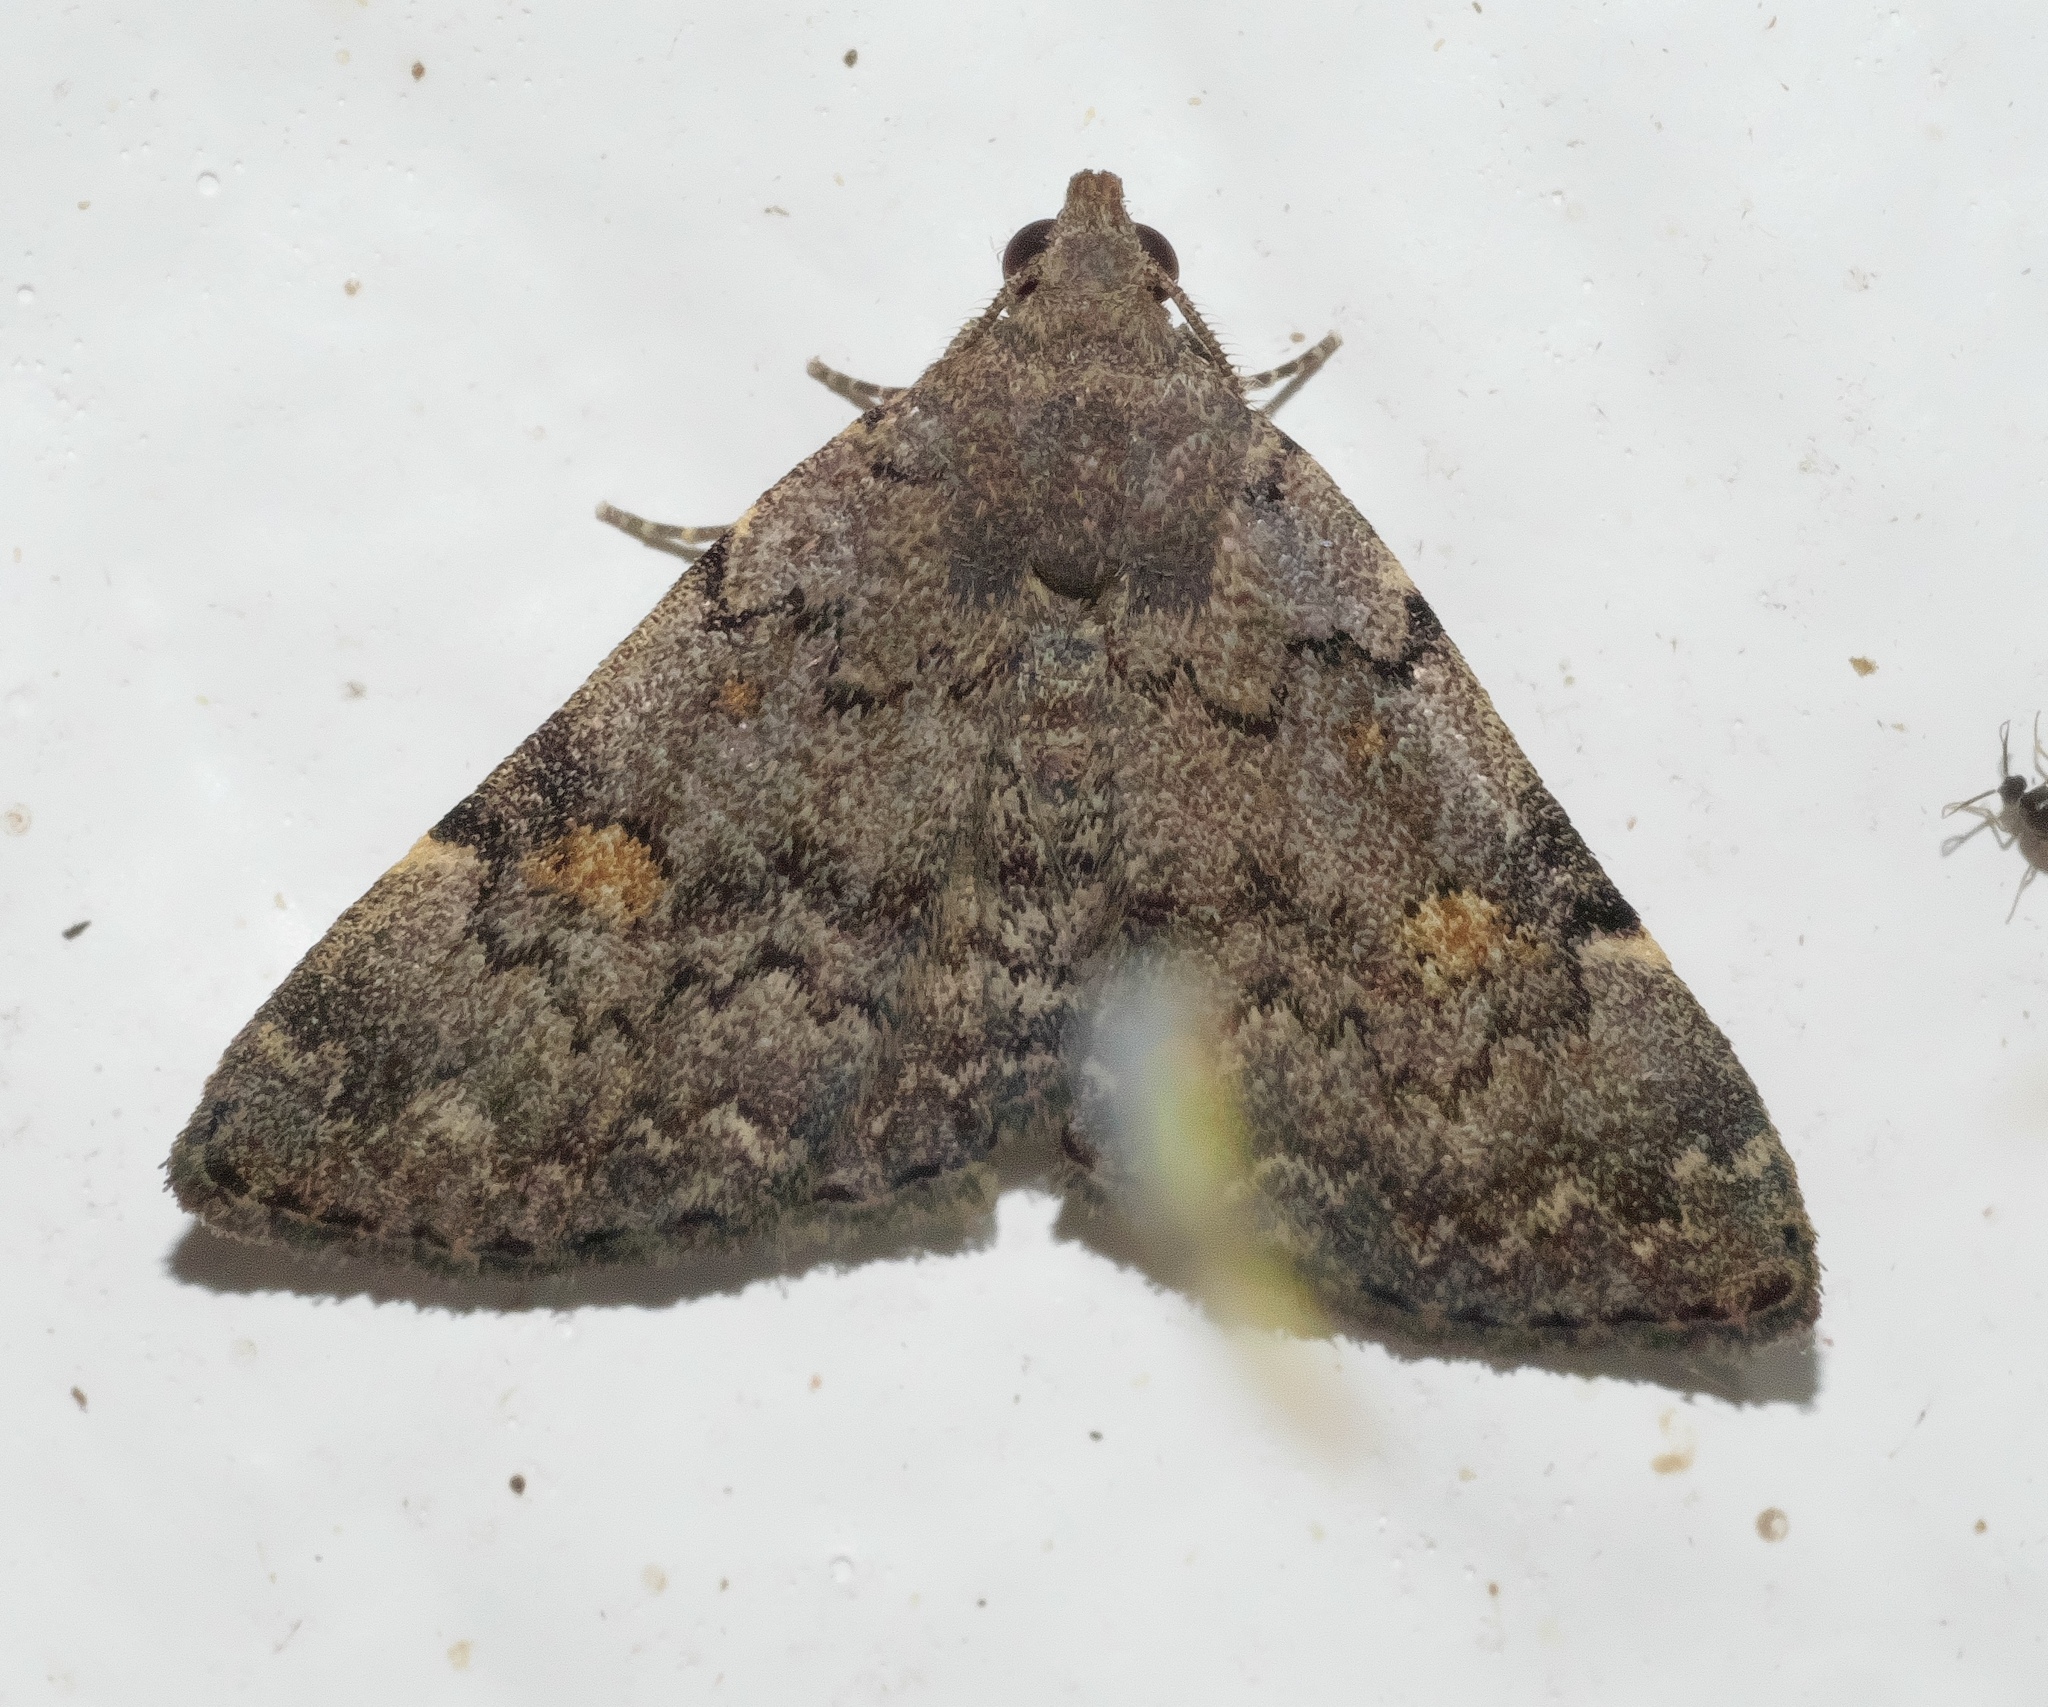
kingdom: Animalia
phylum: Arthropoda
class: Insecta
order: Lepidoptera
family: Erebidae
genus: Idia
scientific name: Idia aemula
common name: Common idia moth
